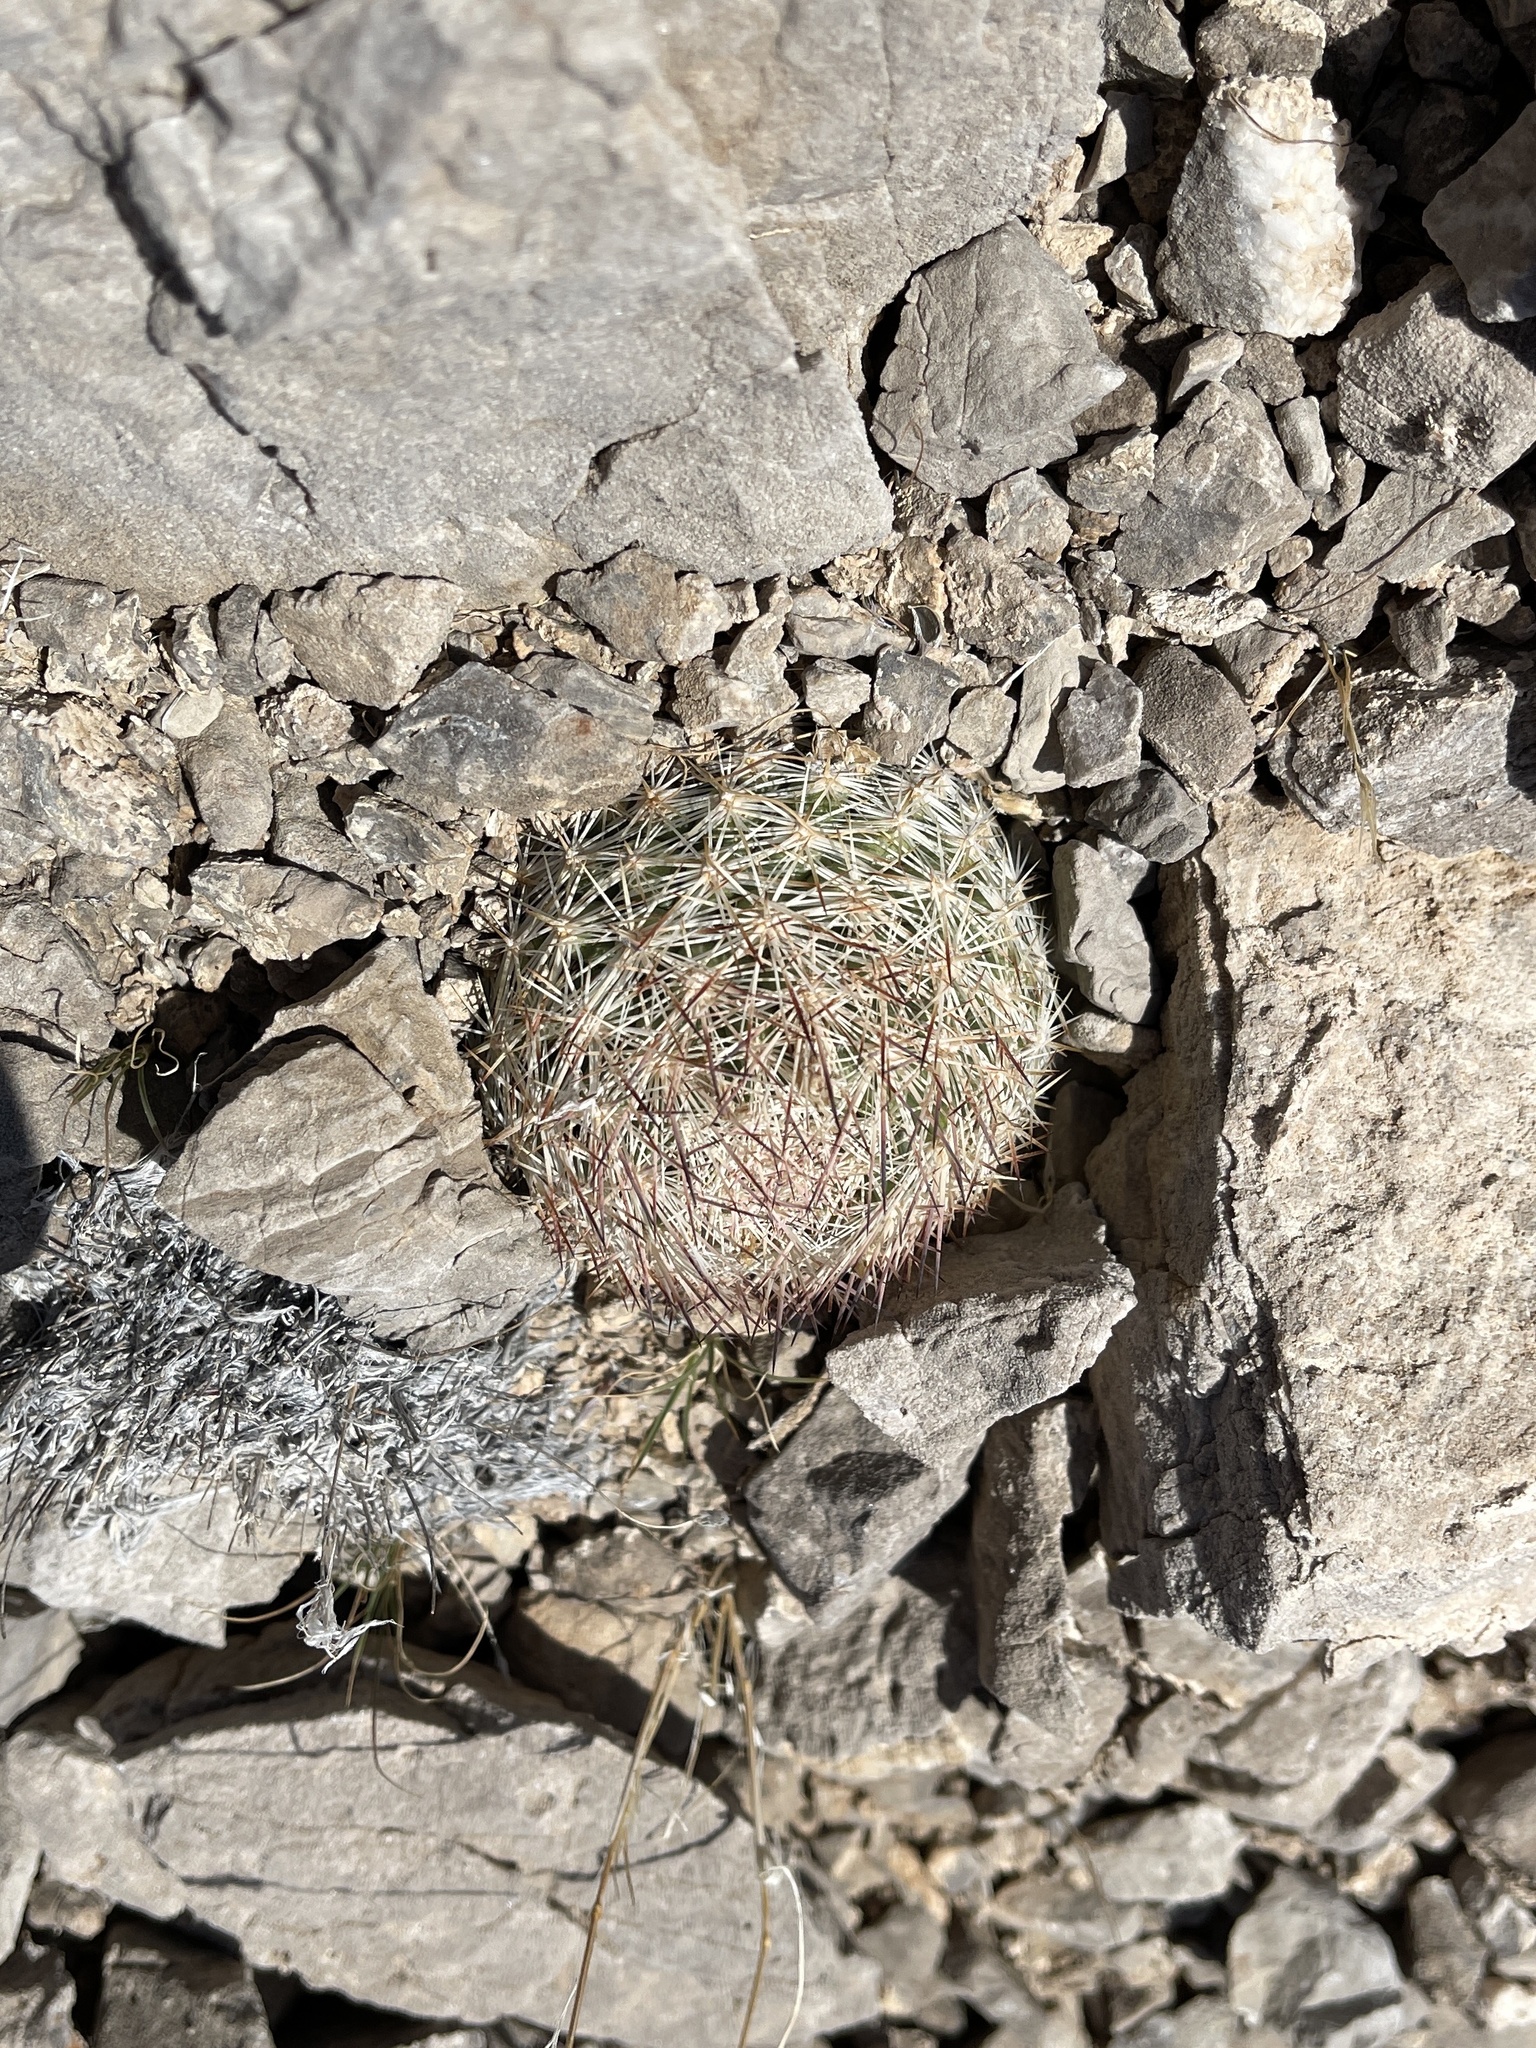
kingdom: Plantae
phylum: Tracheophyta
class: Magnoliopsida
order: Caryophyllales
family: Cactaceae
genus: Pelecyphora
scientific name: Pelecyphora vivipara
